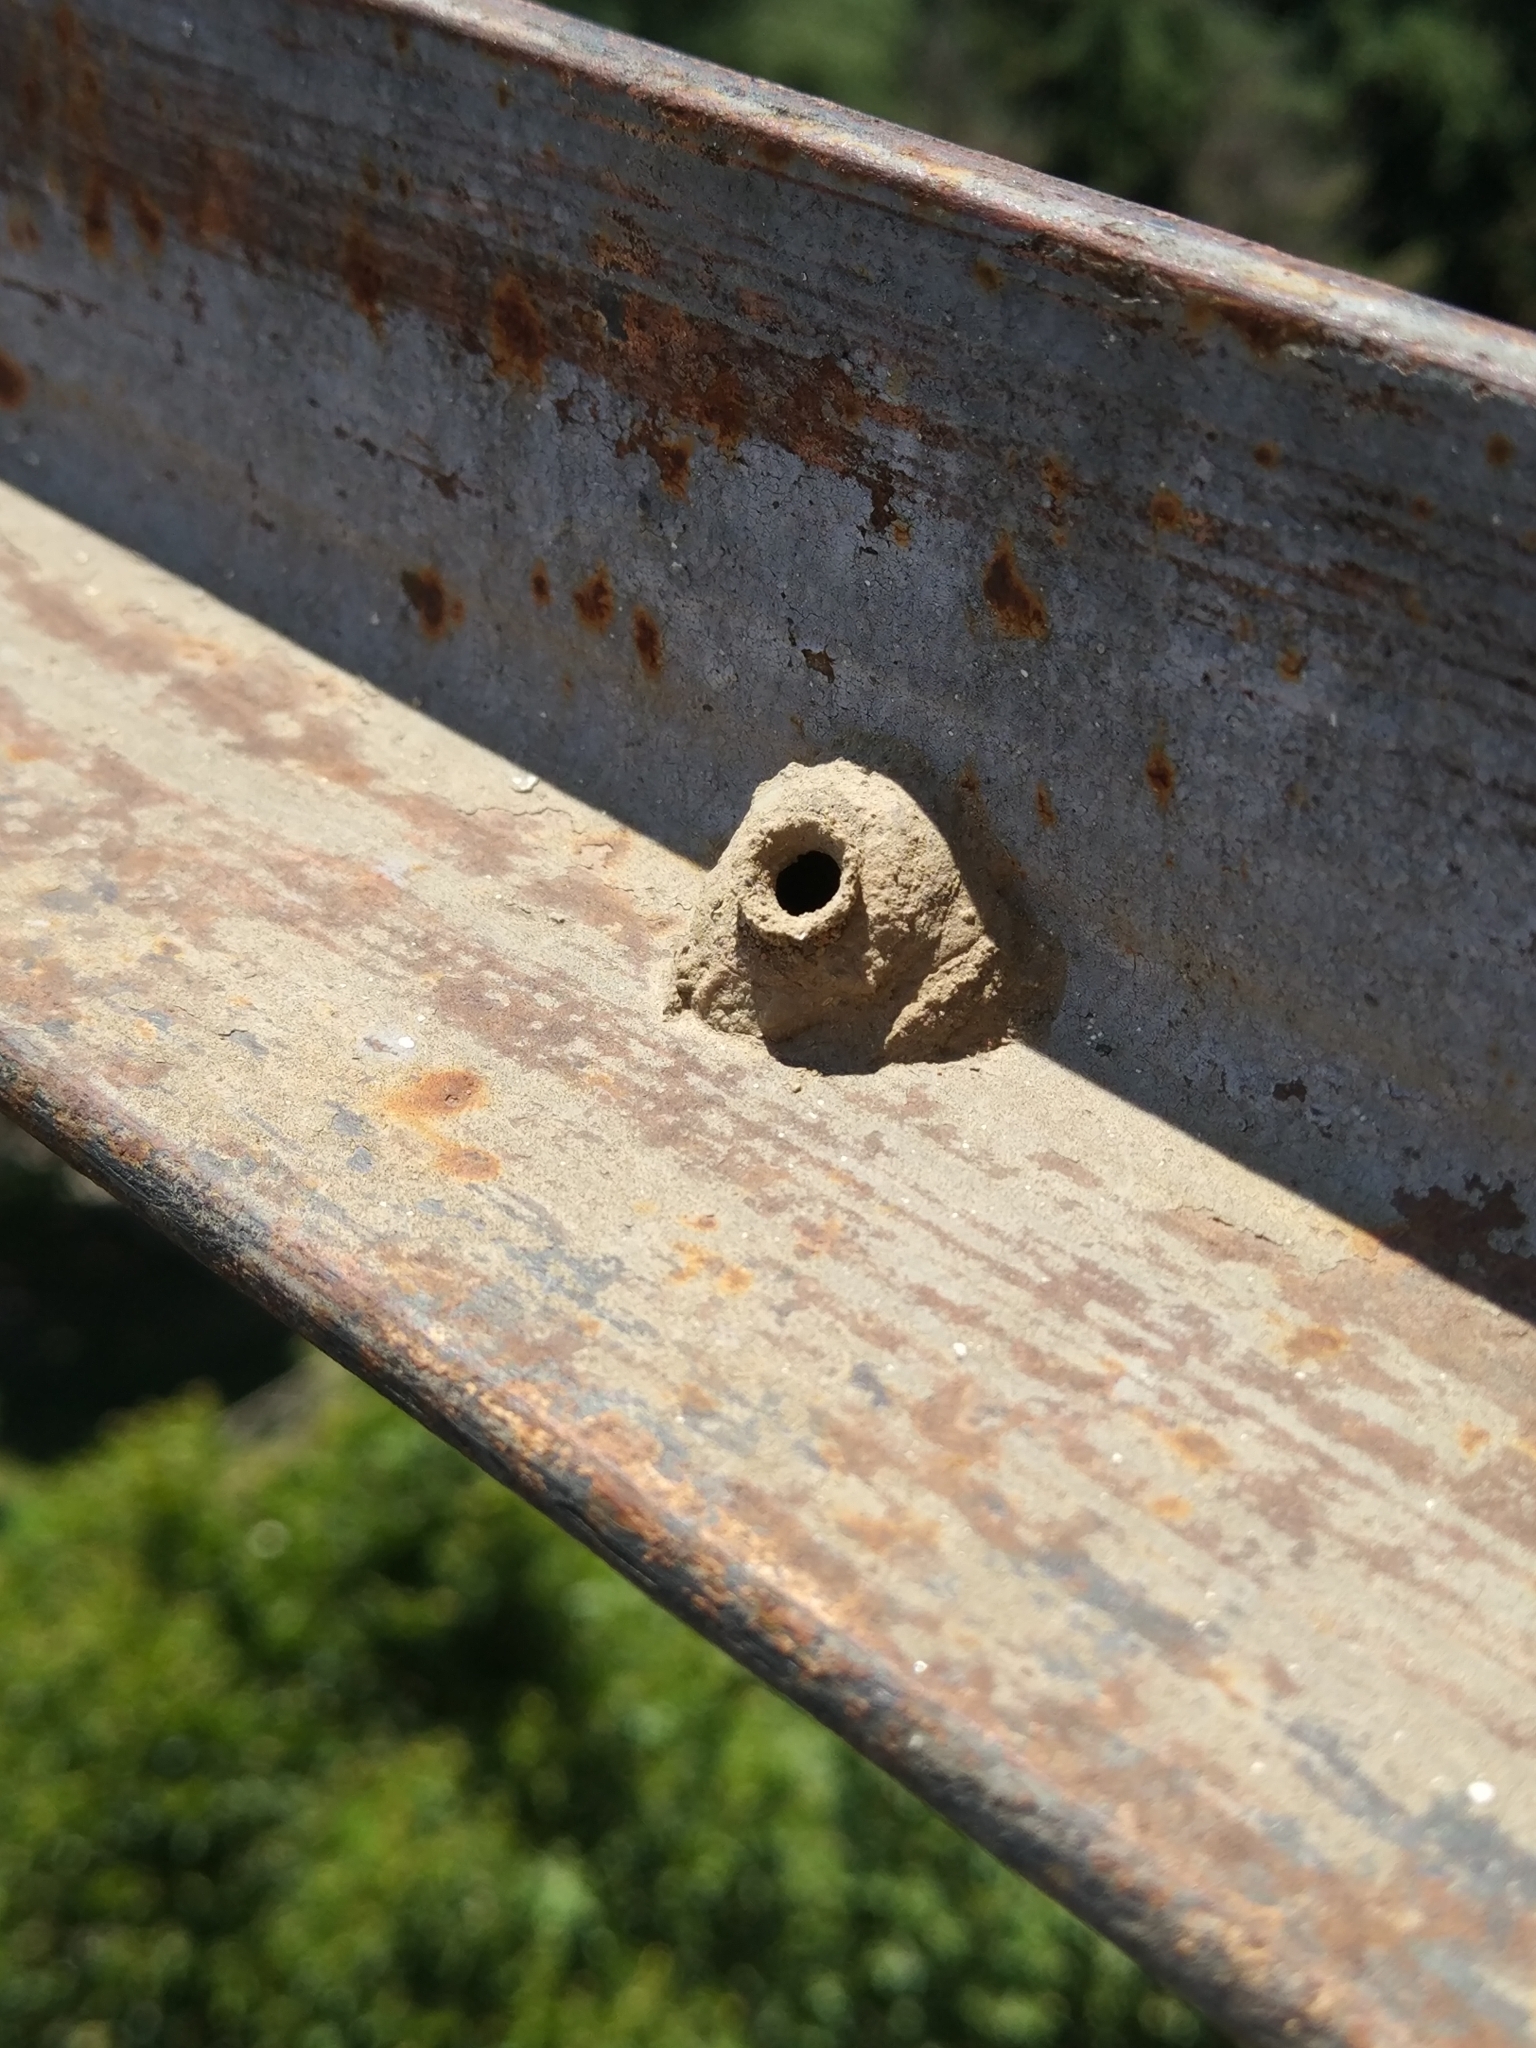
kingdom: Animalia
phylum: Arthropoda
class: Insecta
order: Hymenoptera
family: Eumenidae
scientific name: Eumenidae
